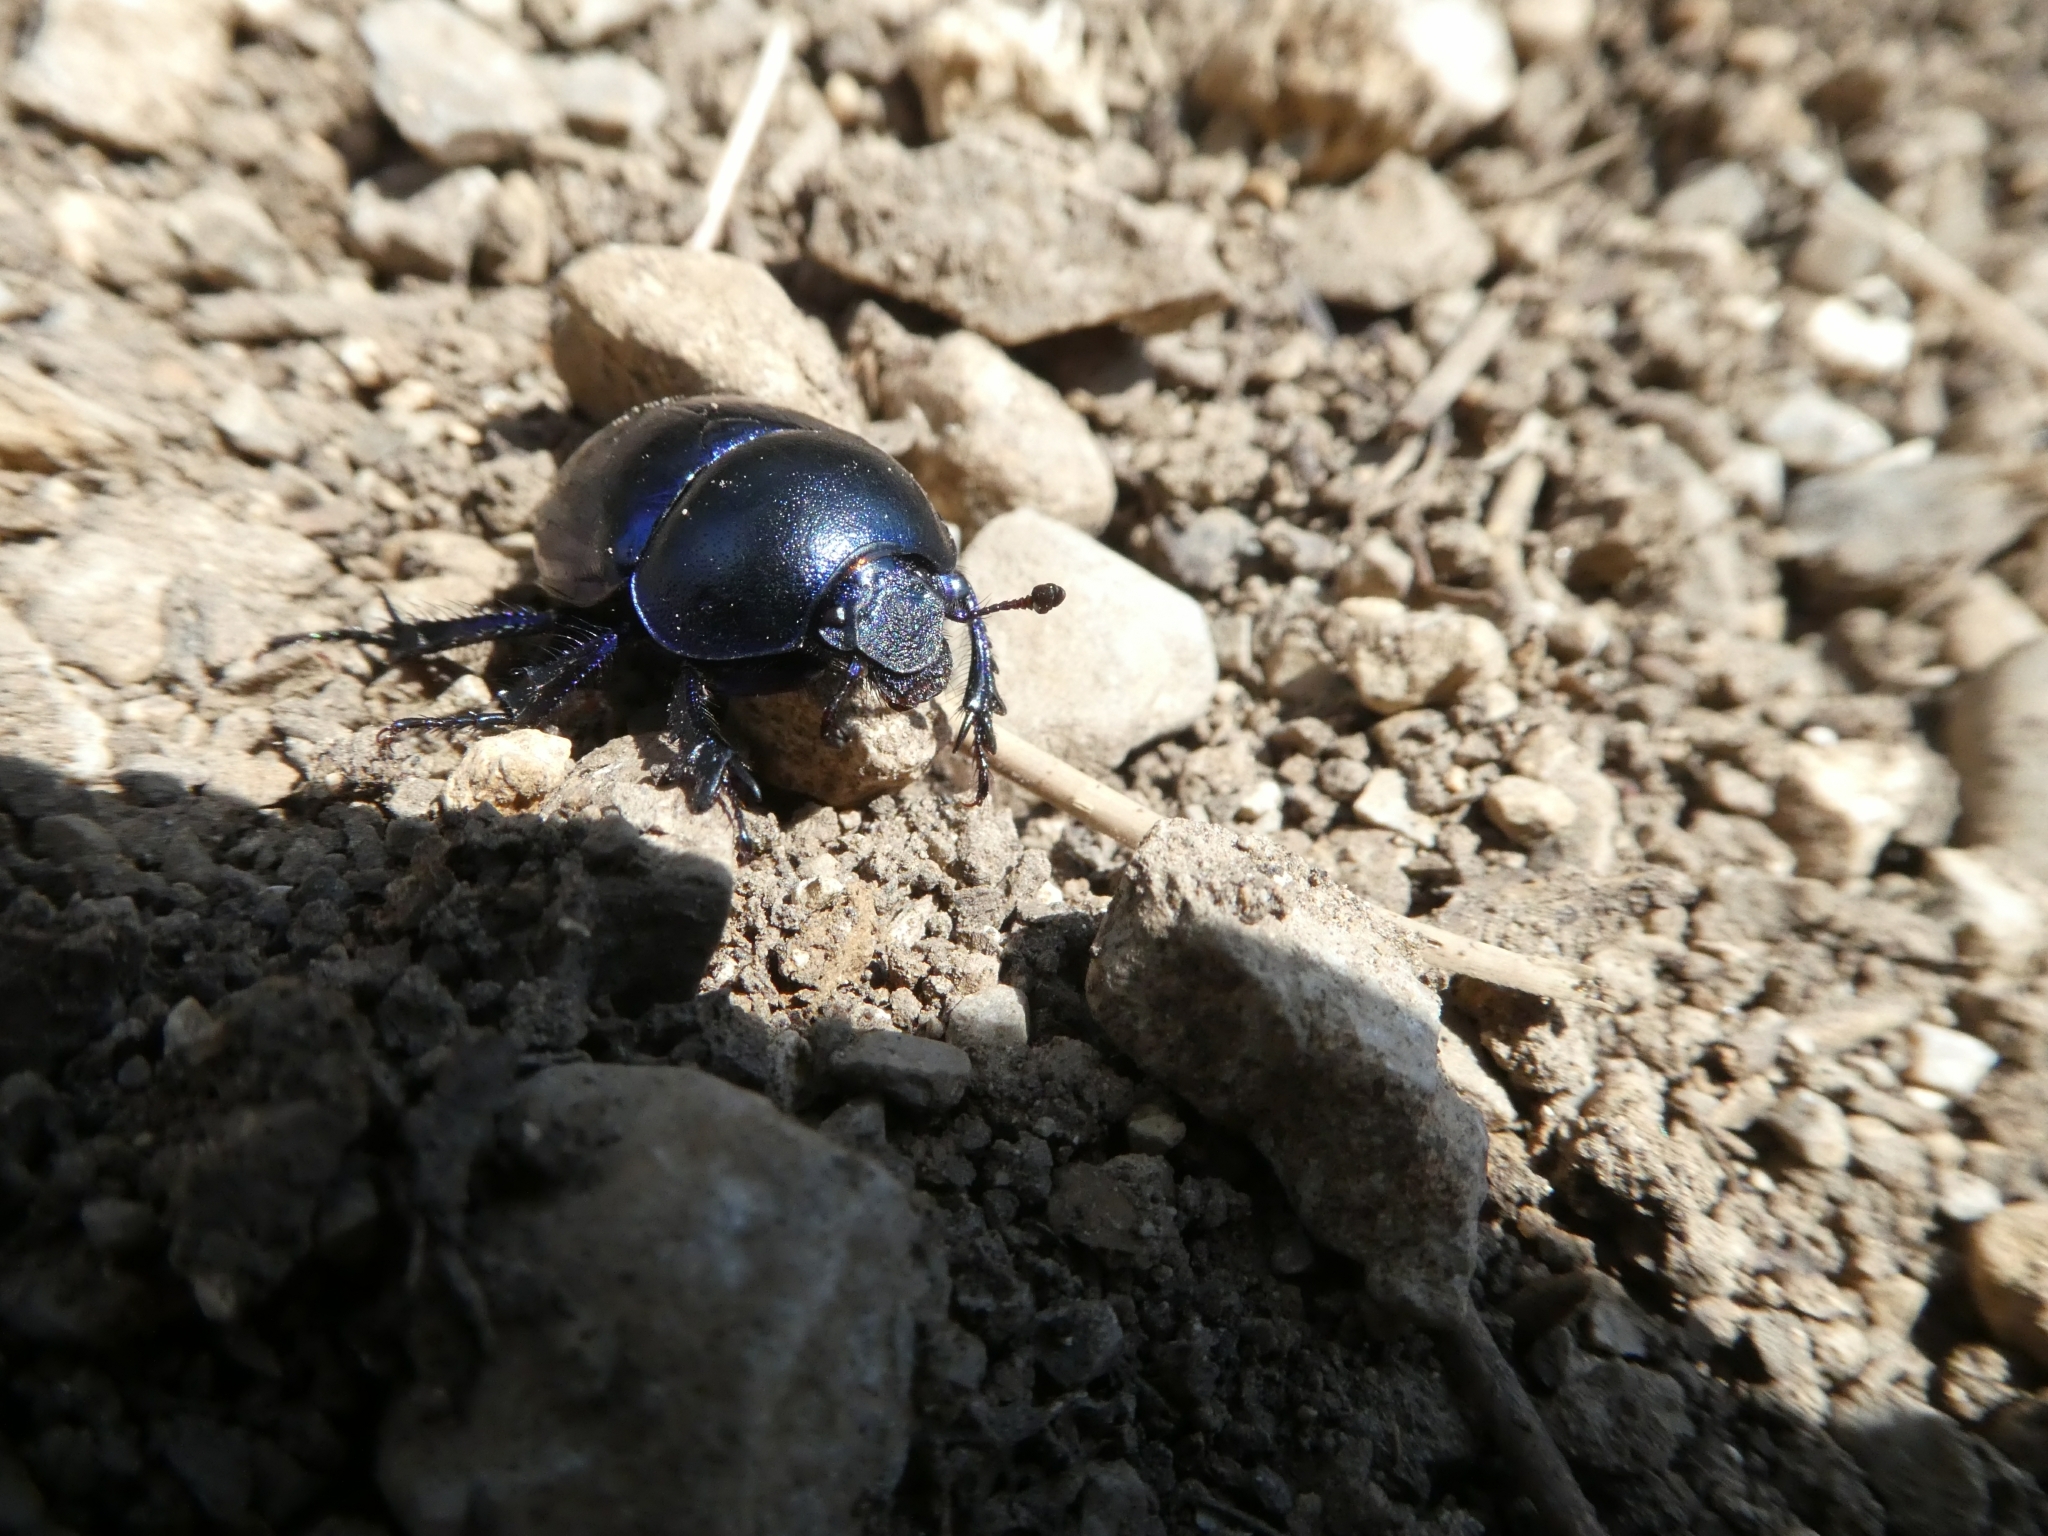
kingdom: Animalia
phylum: Arthropoda
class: Insecta
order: Coleoptera
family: Geotrupidae
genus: Trypocopris
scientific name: Trypocopris vernalis
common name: Spring dumbledor
